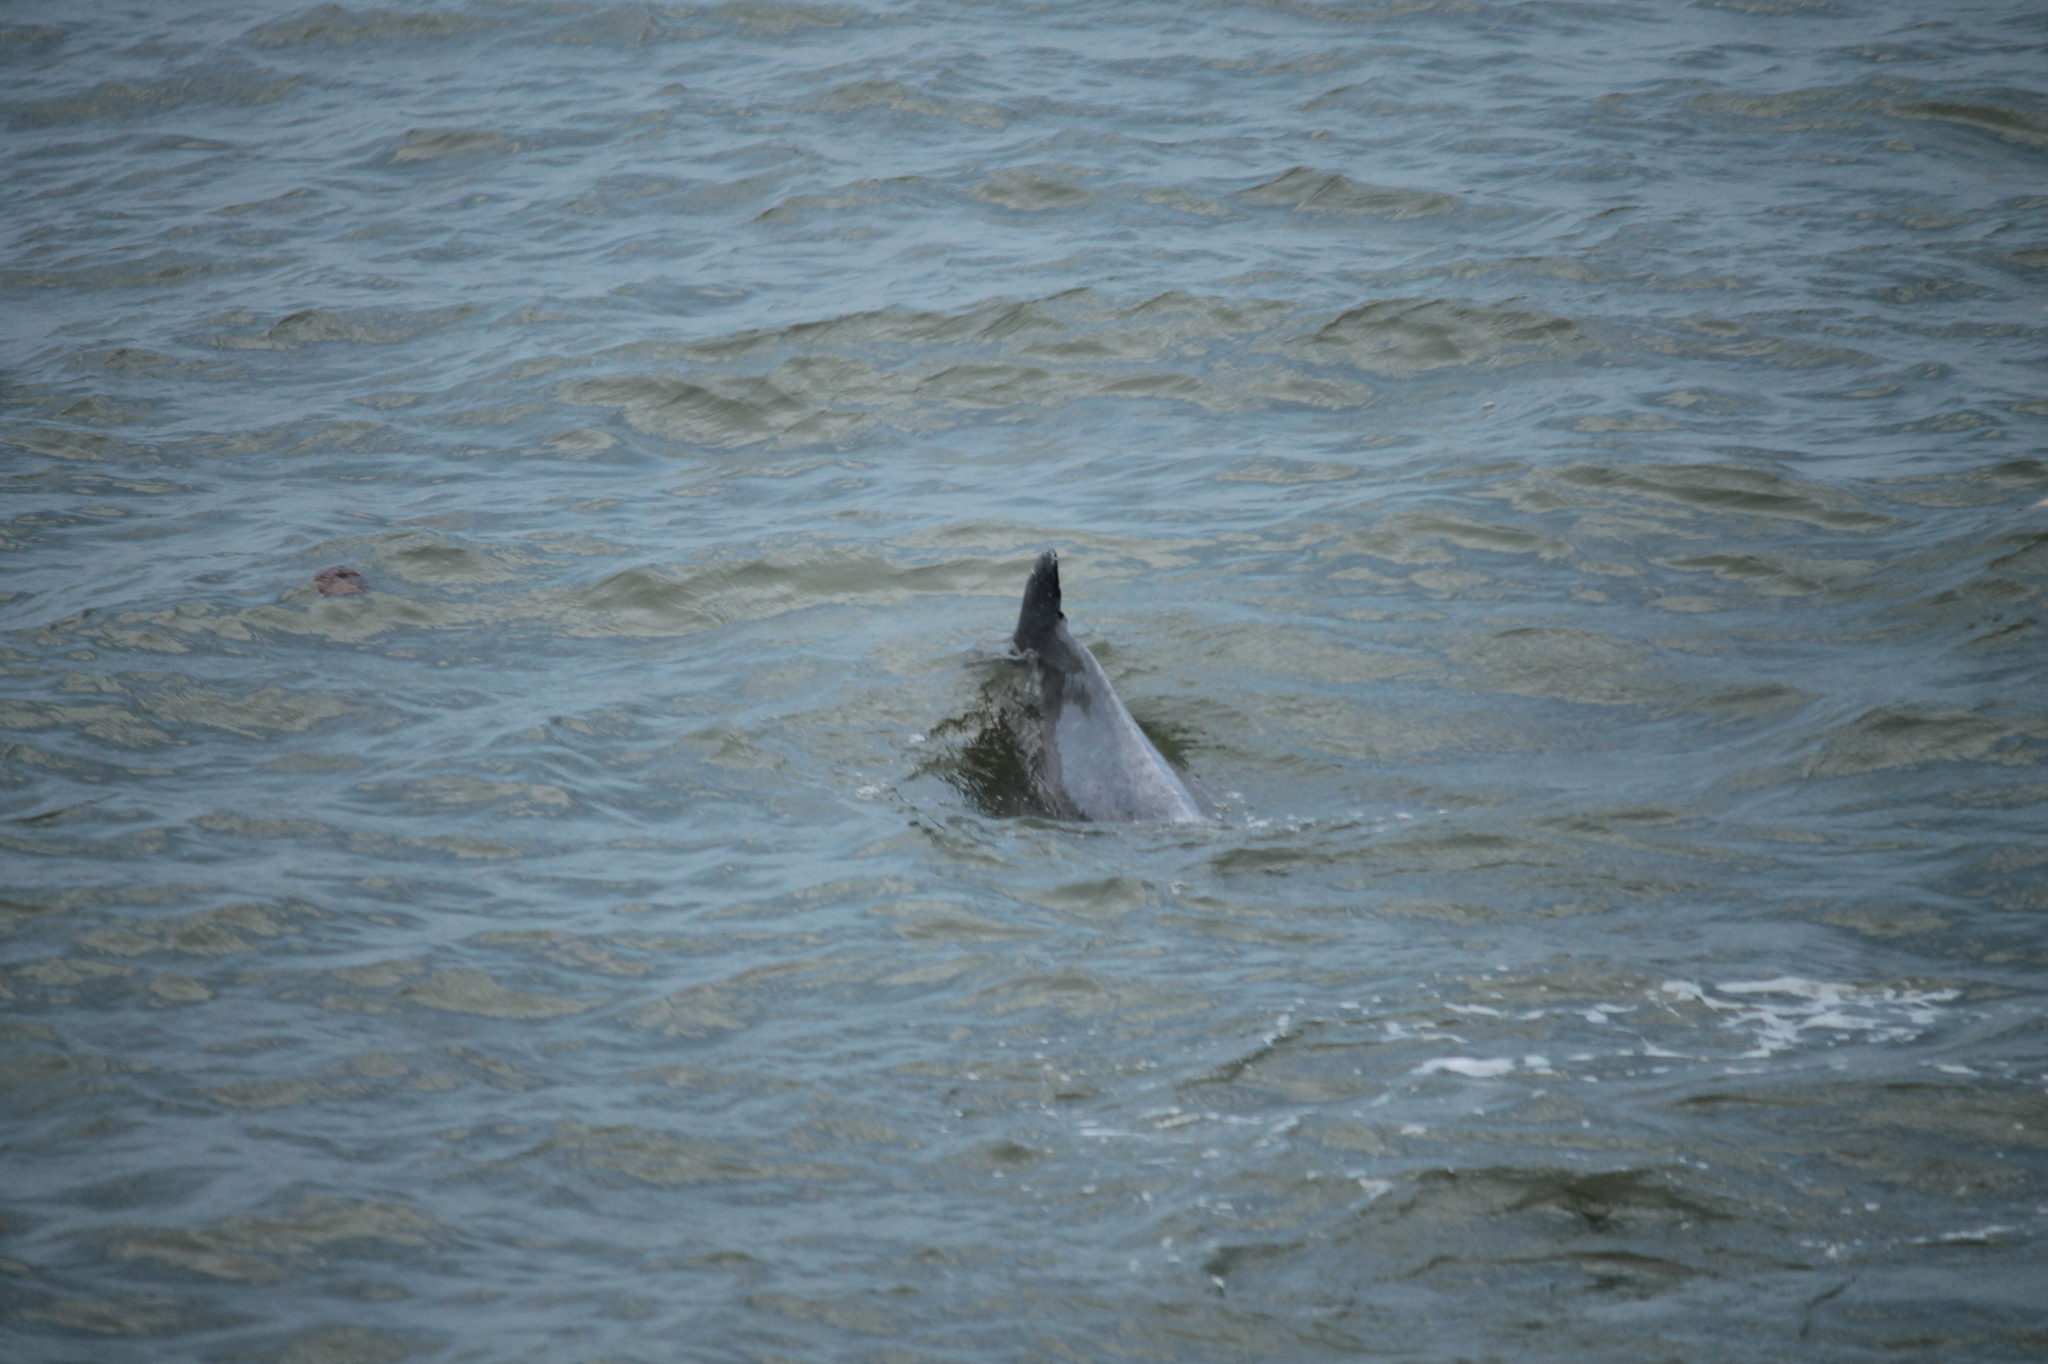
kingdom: Animalia
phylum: Chordata
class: Mammalia
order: Cetacea
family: Delphinidae
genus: Sousa
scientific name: Sousa plumbea
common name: Indian ocean humpback dolphin
